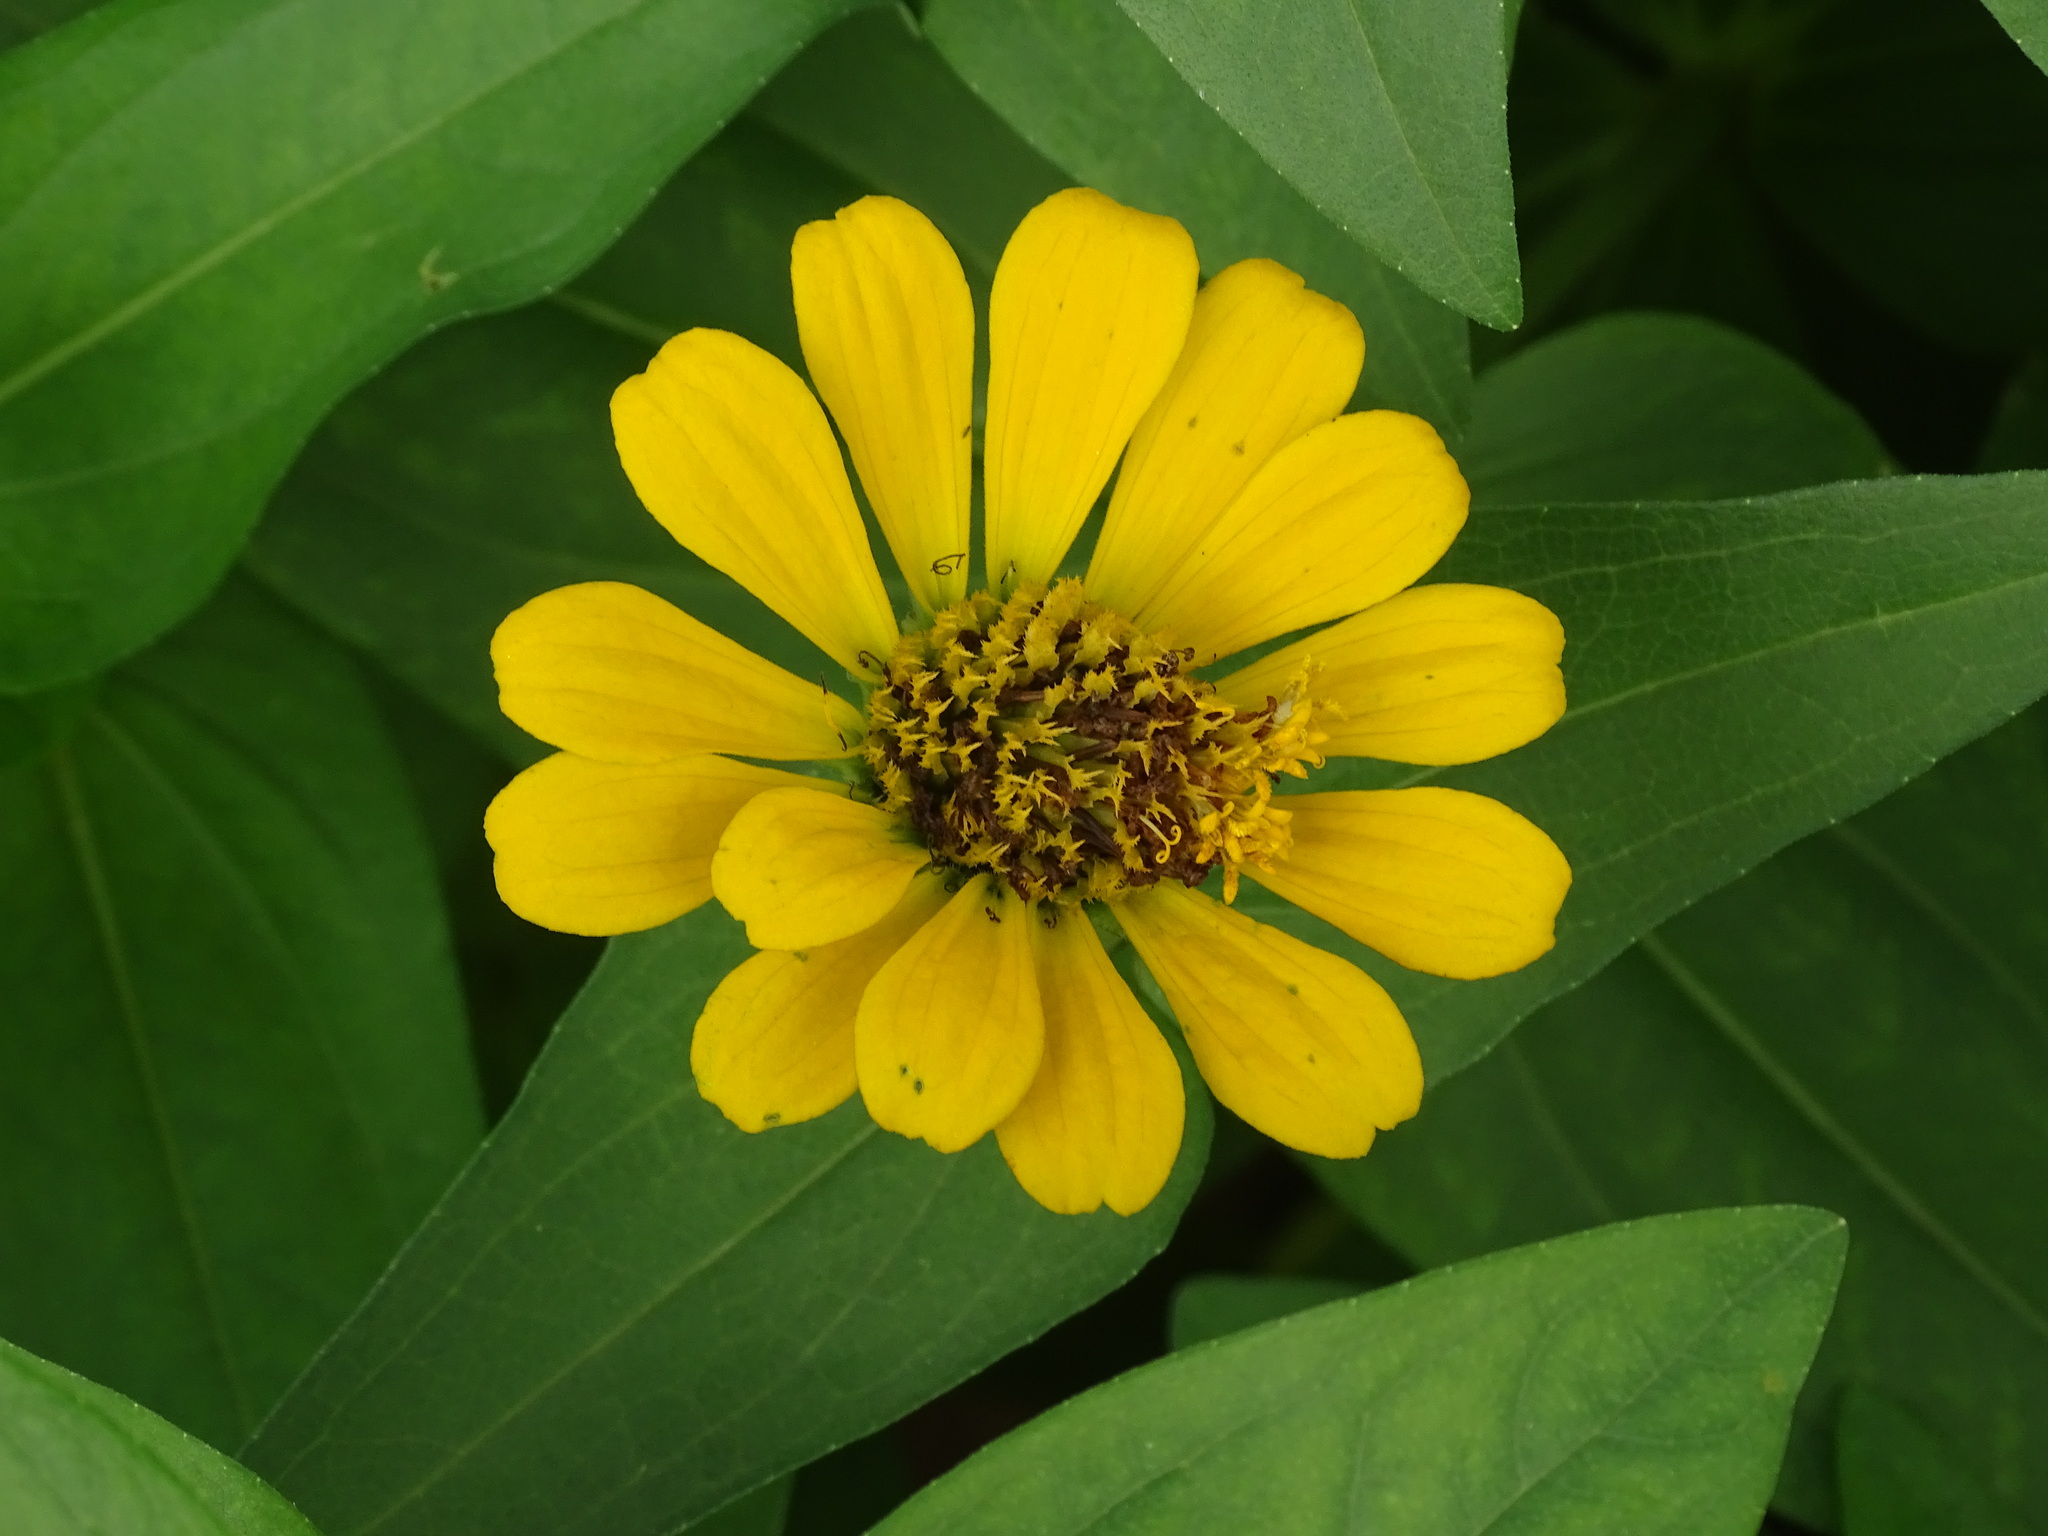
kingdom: Plantae
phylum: Tracheophyta
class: Magnoliopsida
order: Asterales
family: Asteraceae
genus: Zinnia
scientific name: Zinnia elegans
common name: Youth-and-age
